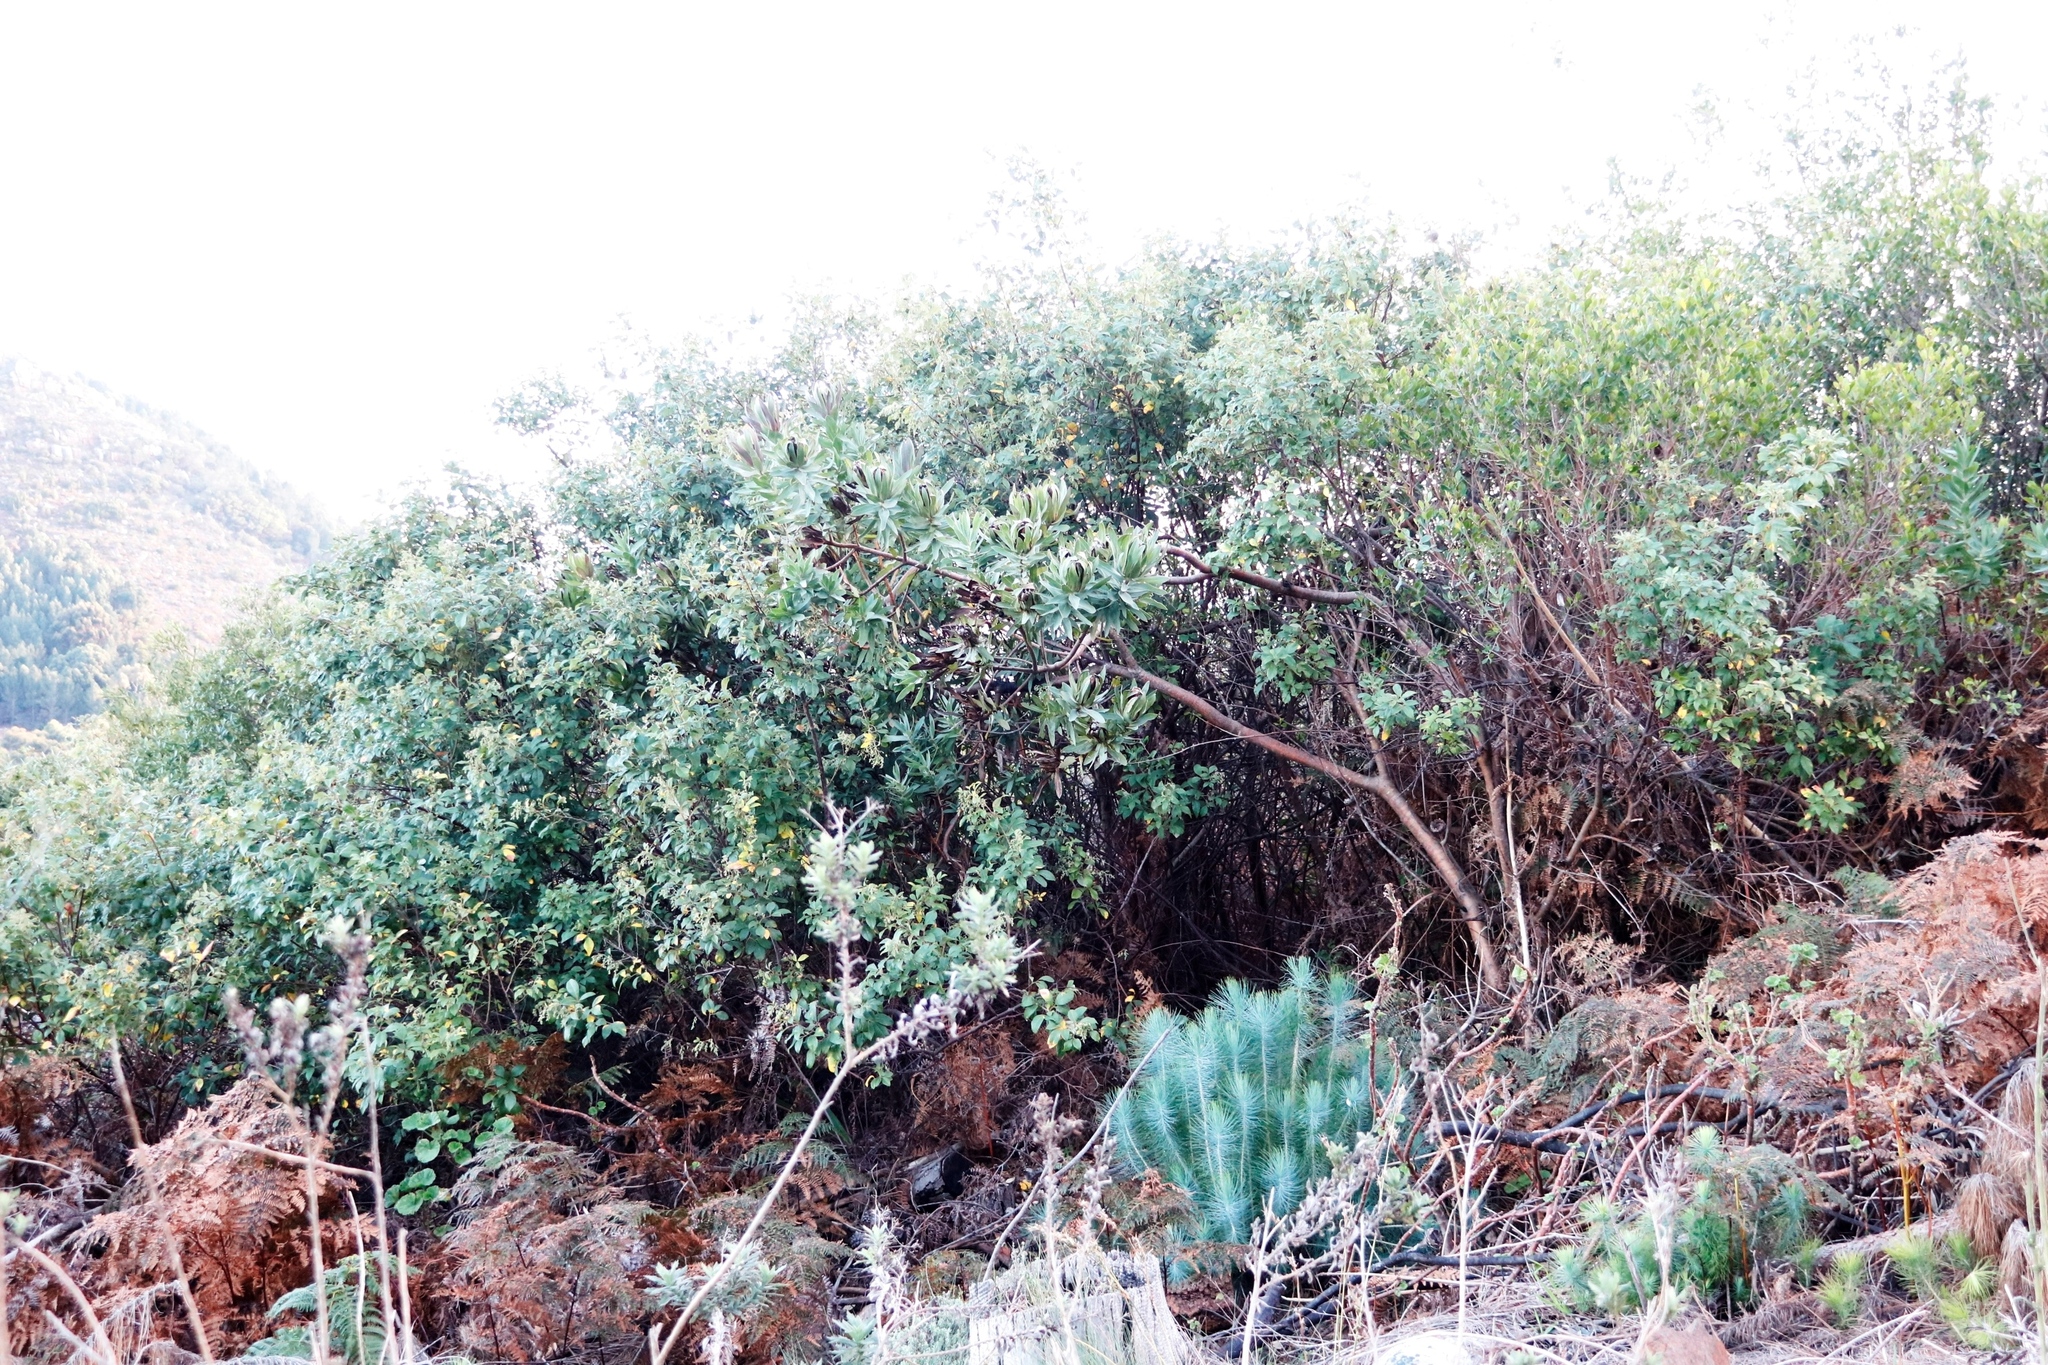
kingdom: Plantae
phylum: Tracheophyta
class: Magnoliopsida
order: Proteales
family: Proteaceae
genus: Protea
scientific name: Protea coronata
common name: Green sugarbush
